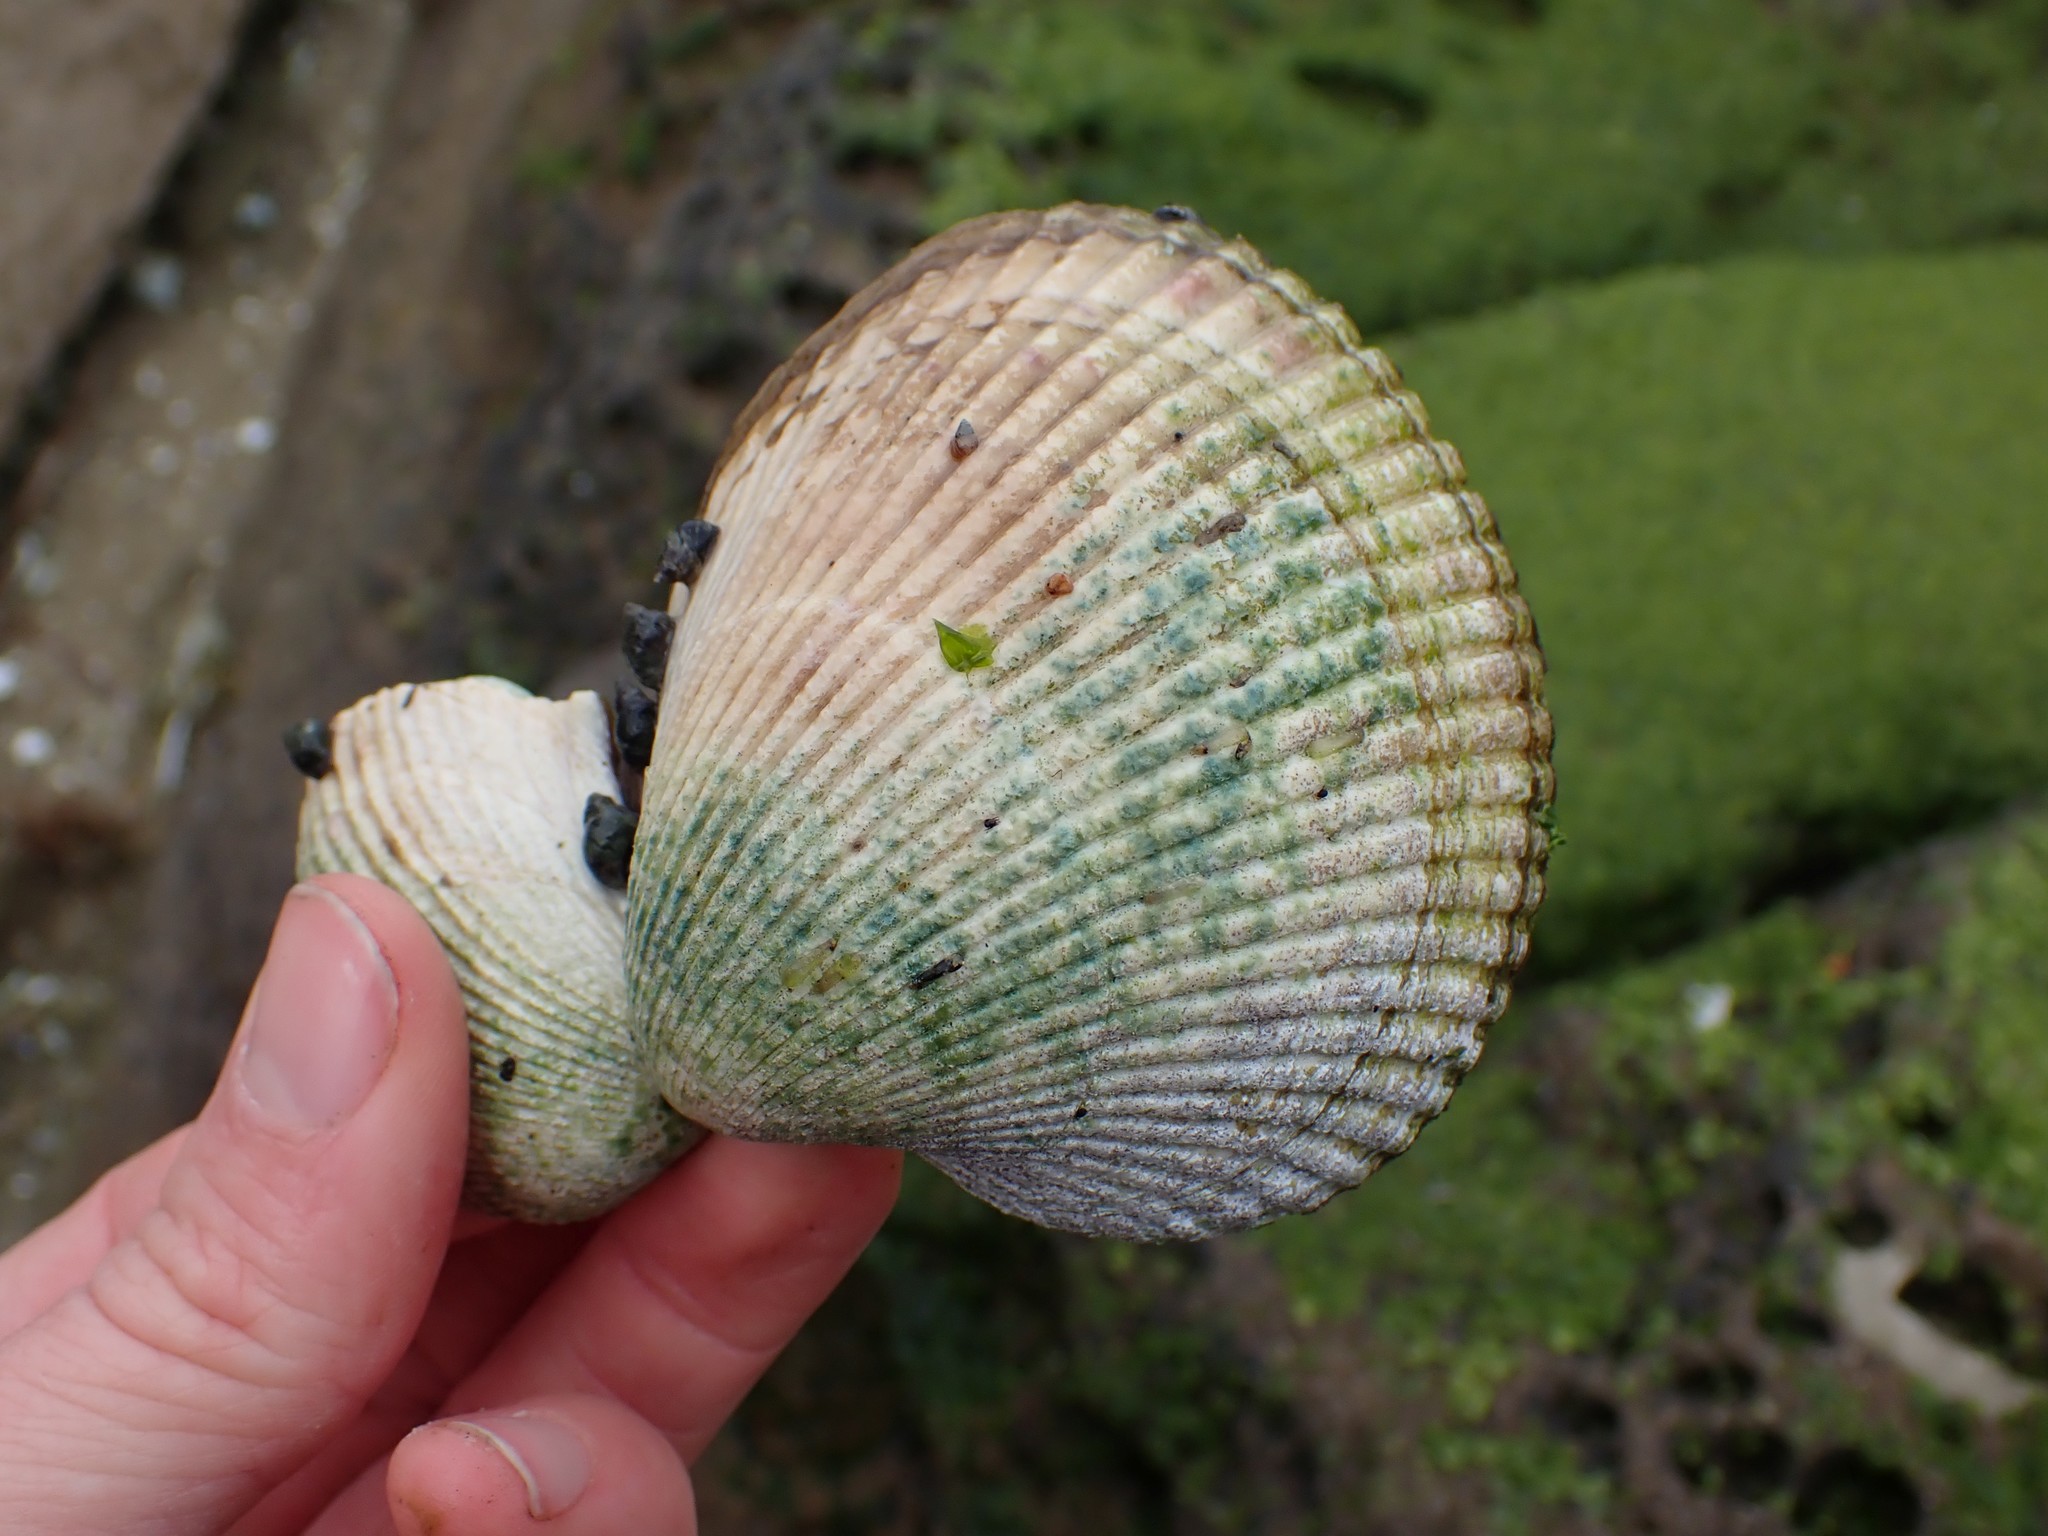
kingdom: Animalia
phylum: Mollusca
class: Bivalvia
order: Cardiida
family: Cardiidae
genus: Clinocardium
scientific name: Clinocardium nuttallii
